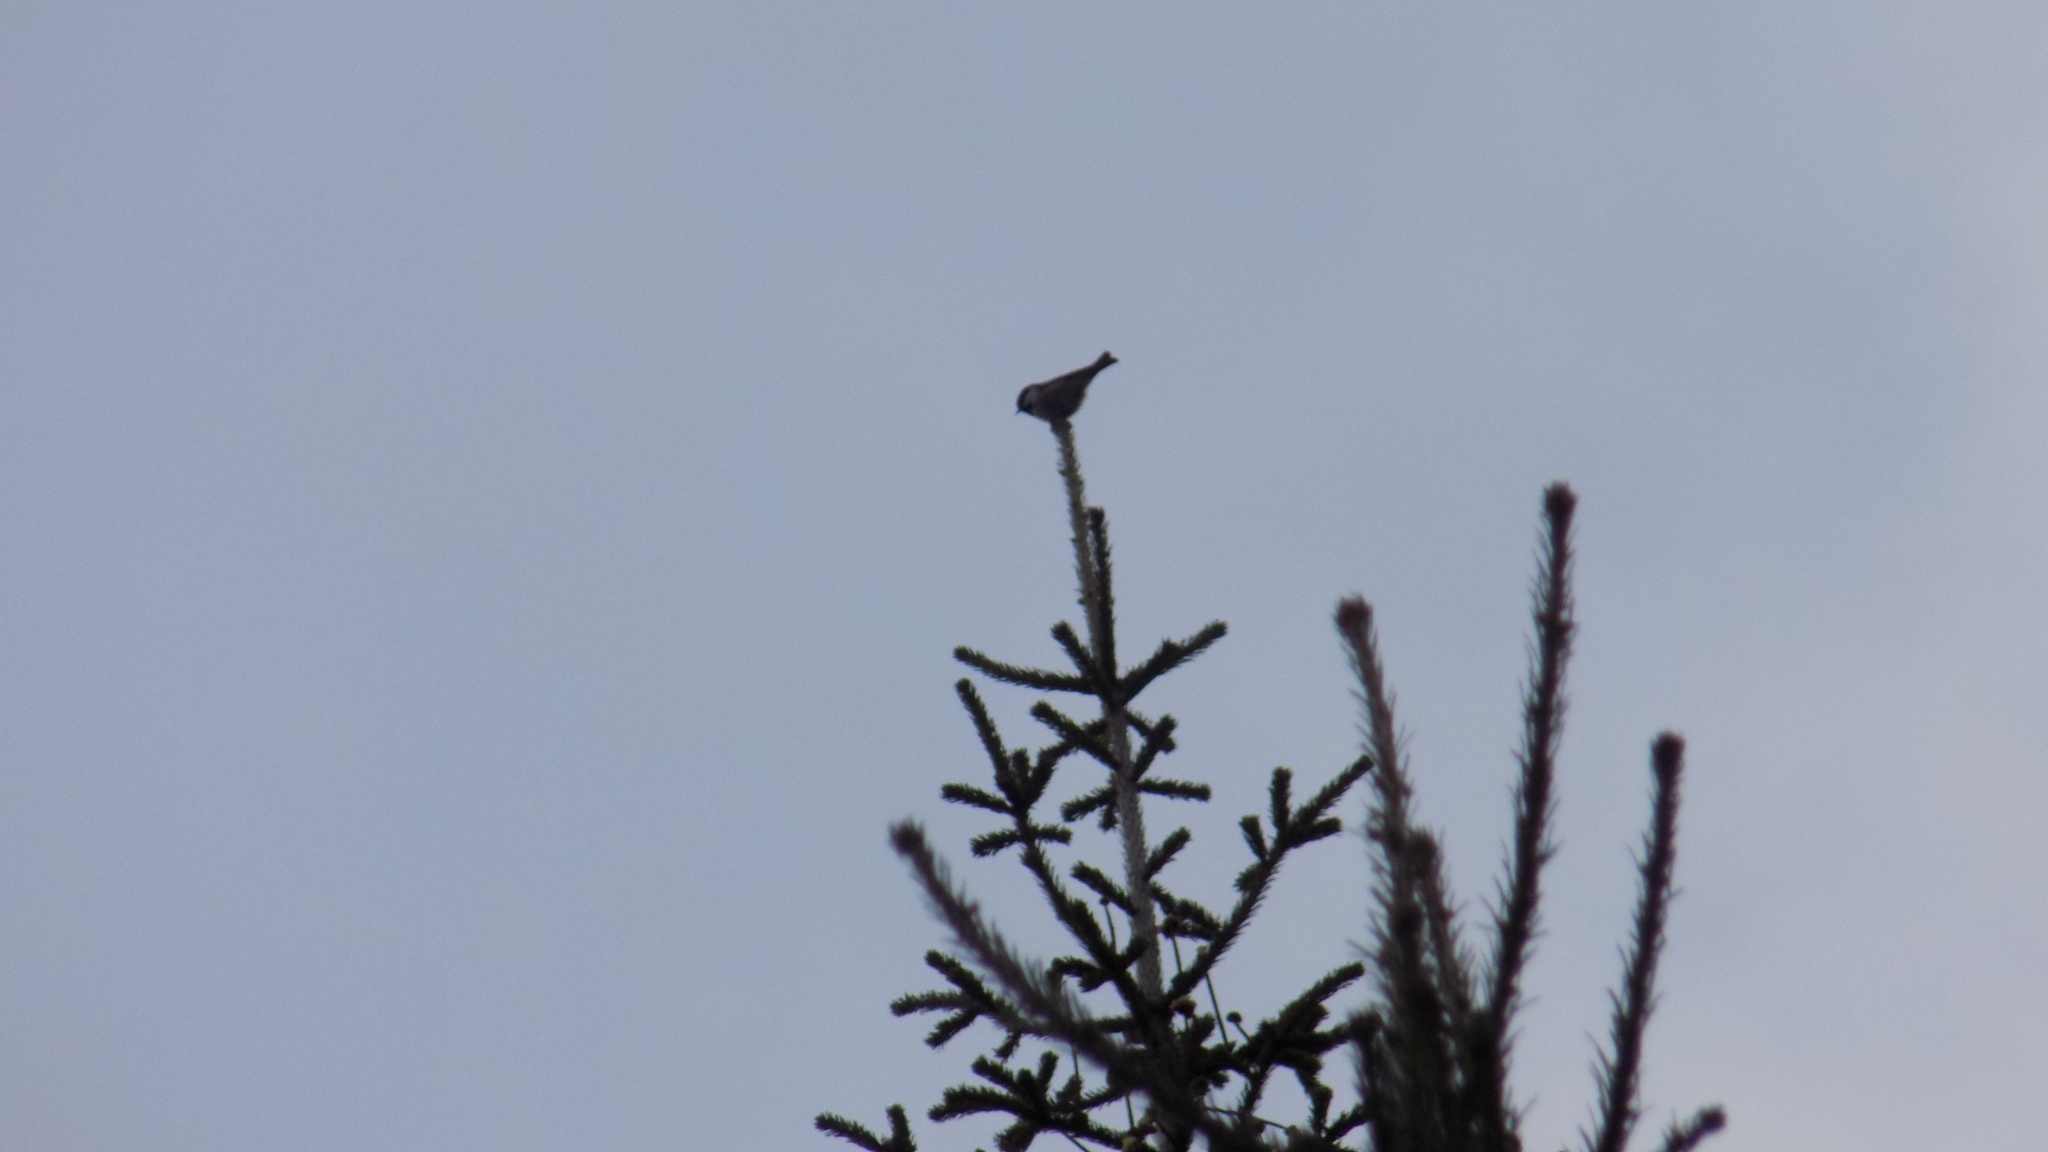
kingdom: Animalia
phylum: Chordata
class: Aves
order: Passeriformes
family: Paridae
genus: Periparus
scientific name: Periparus ater
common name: Coal tit
